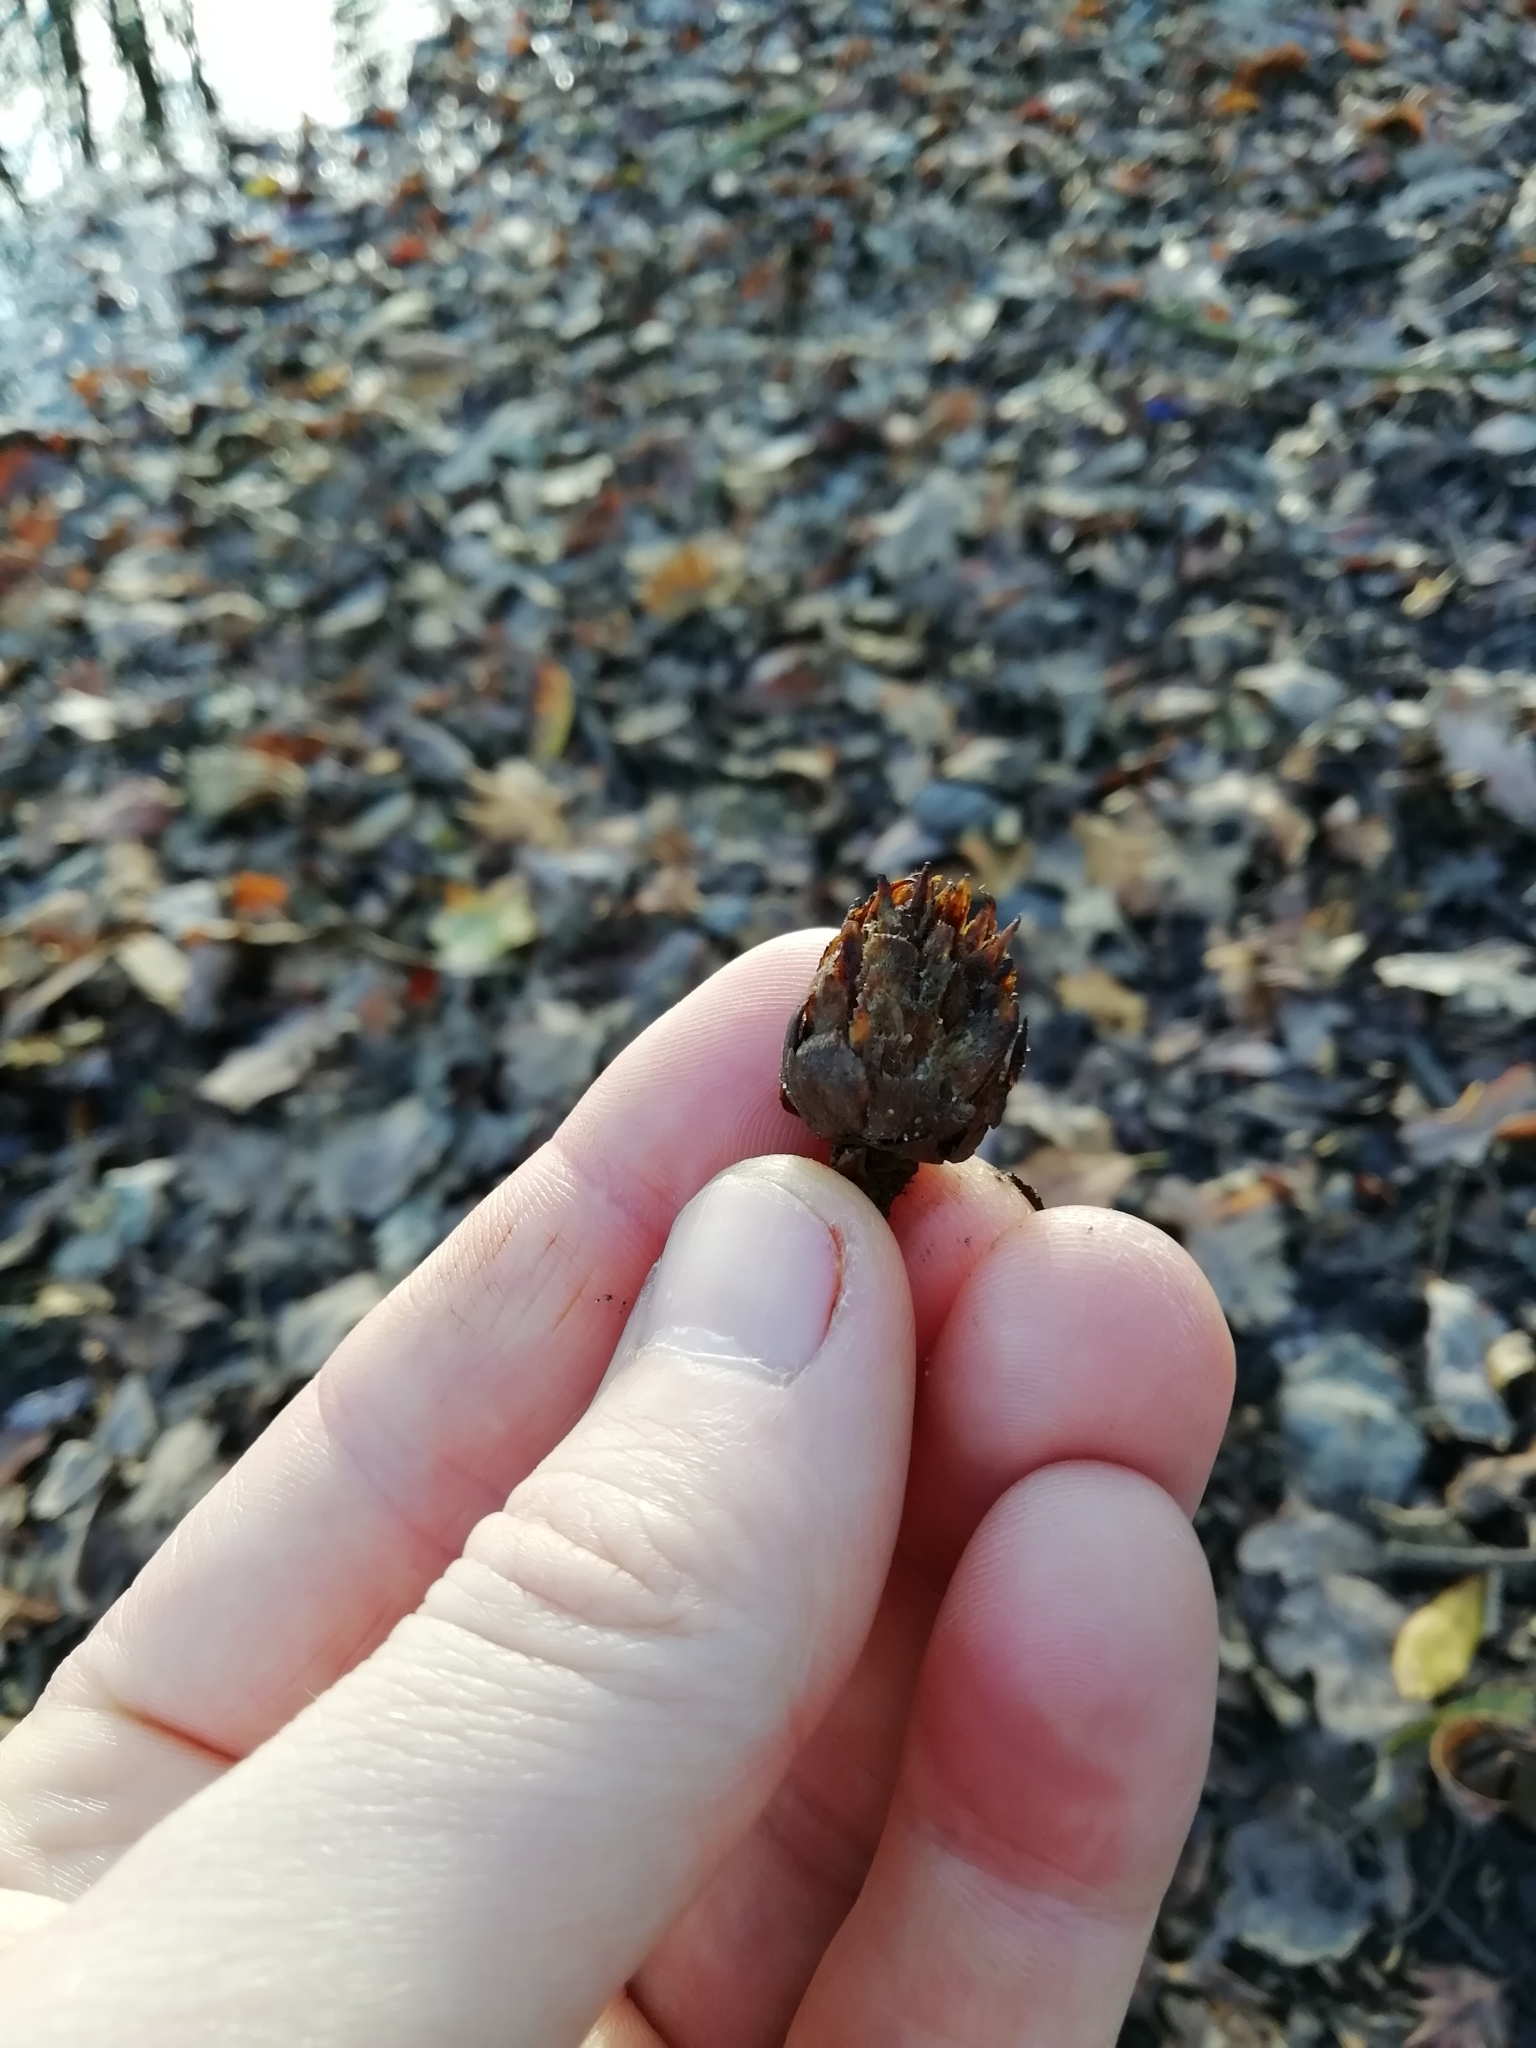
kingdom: Animalia
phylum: Arthropoda
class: Insecta
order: Hymenoptera
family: Cynipidae
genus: Andricus
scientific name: Andricus foecundatrix
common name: Artichoke gall
